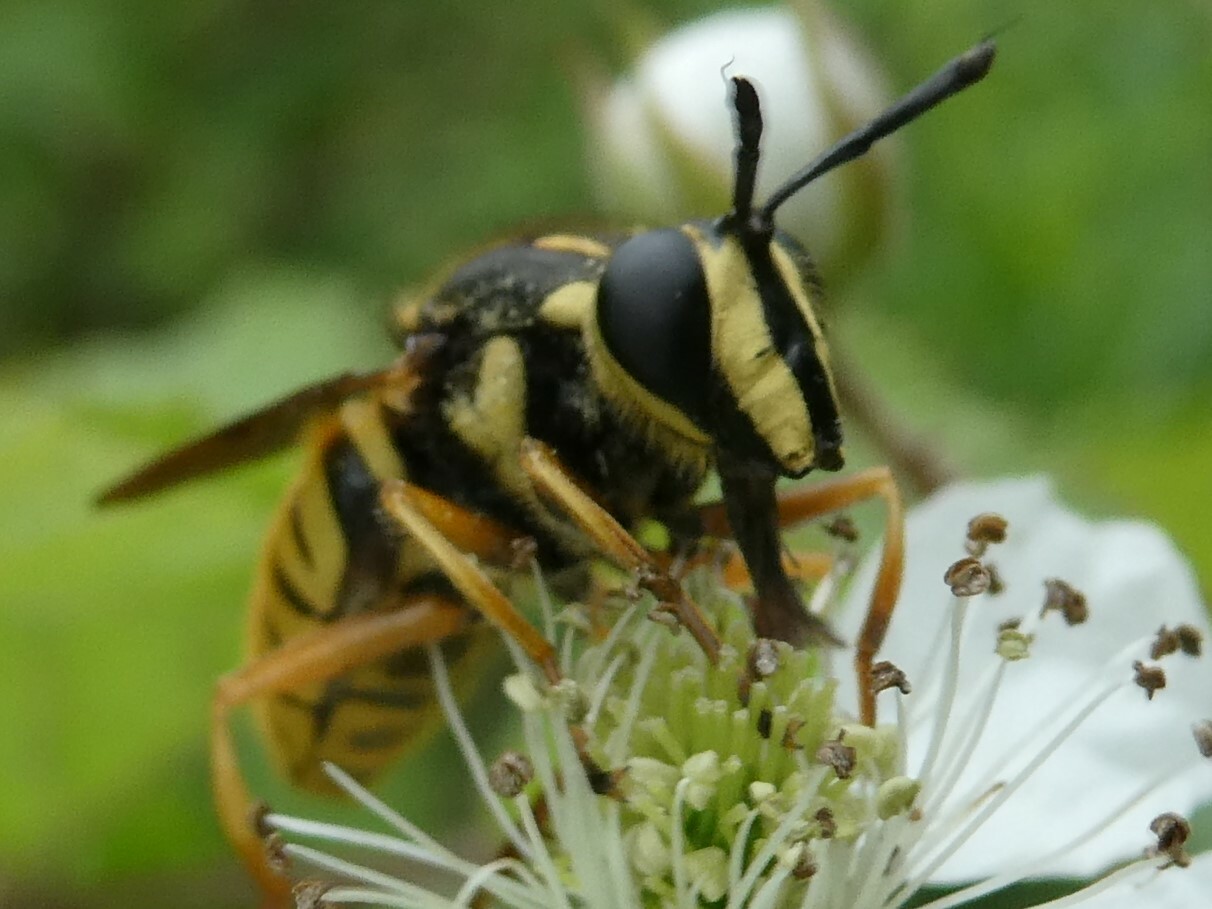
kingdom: Animalia
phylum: Arthropoda
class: Insecta
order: Diptera
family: Syrphidae
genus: Sphecomyia
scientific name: Sphecomyia vittata
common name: Long-horned yellowjacket fly
